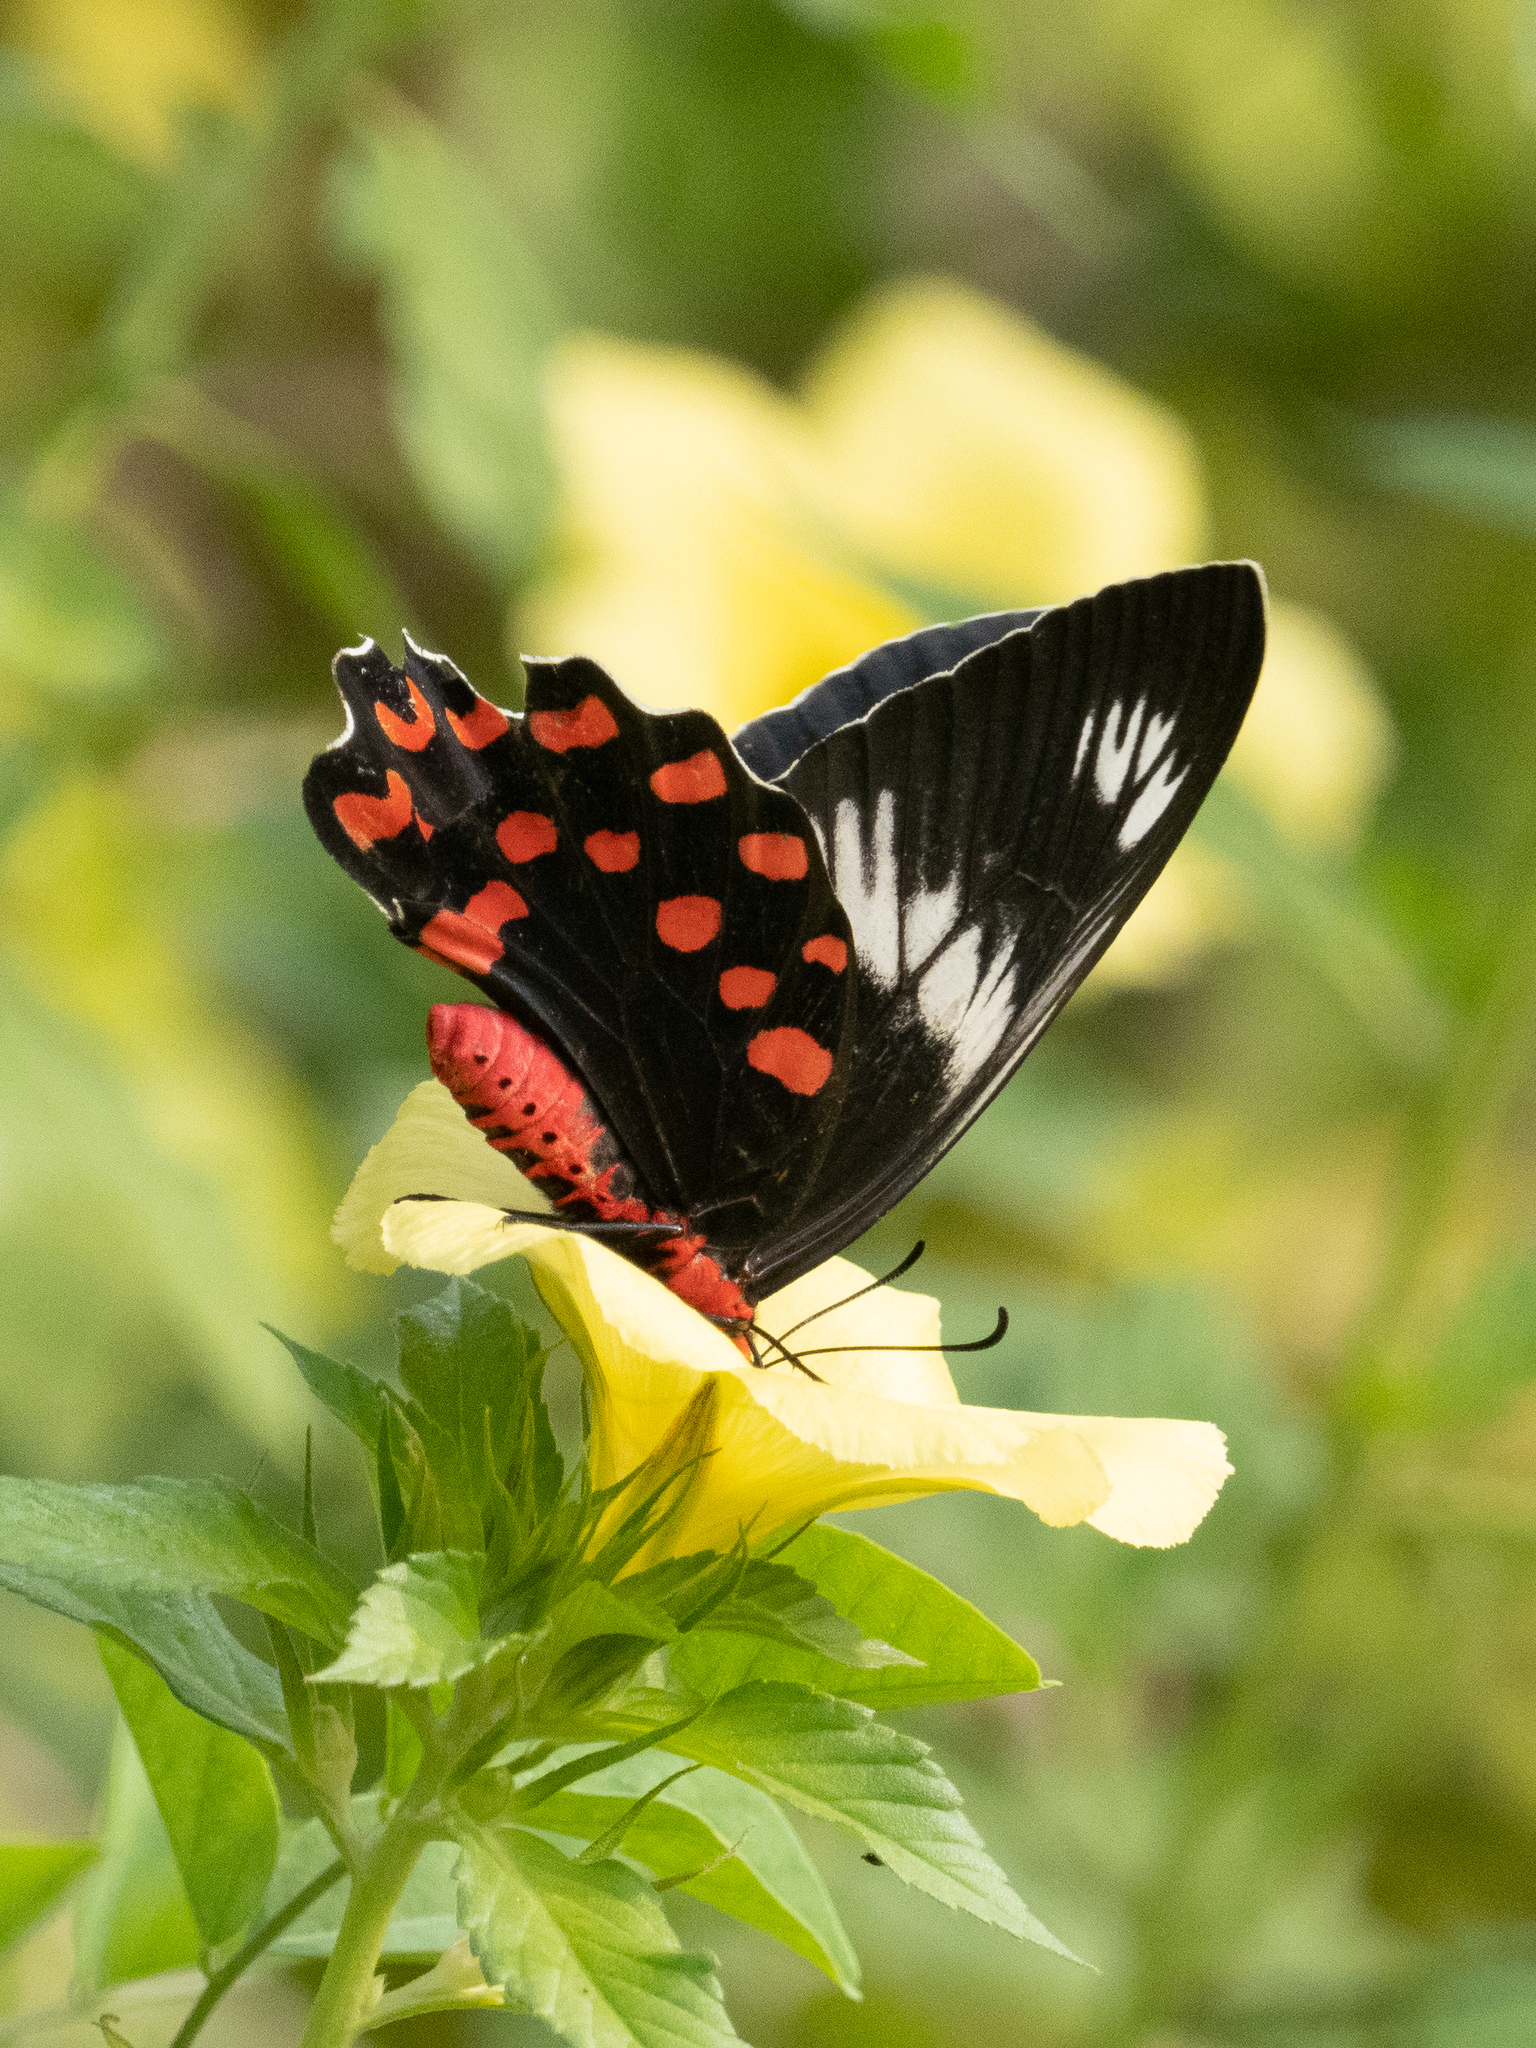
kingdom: Animalia
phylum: Arthropoda
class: Insecta
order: Lepidoptera
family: Papilionidae
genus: Pachliopta
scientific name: Pachliopta hector
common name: Crimson rose
